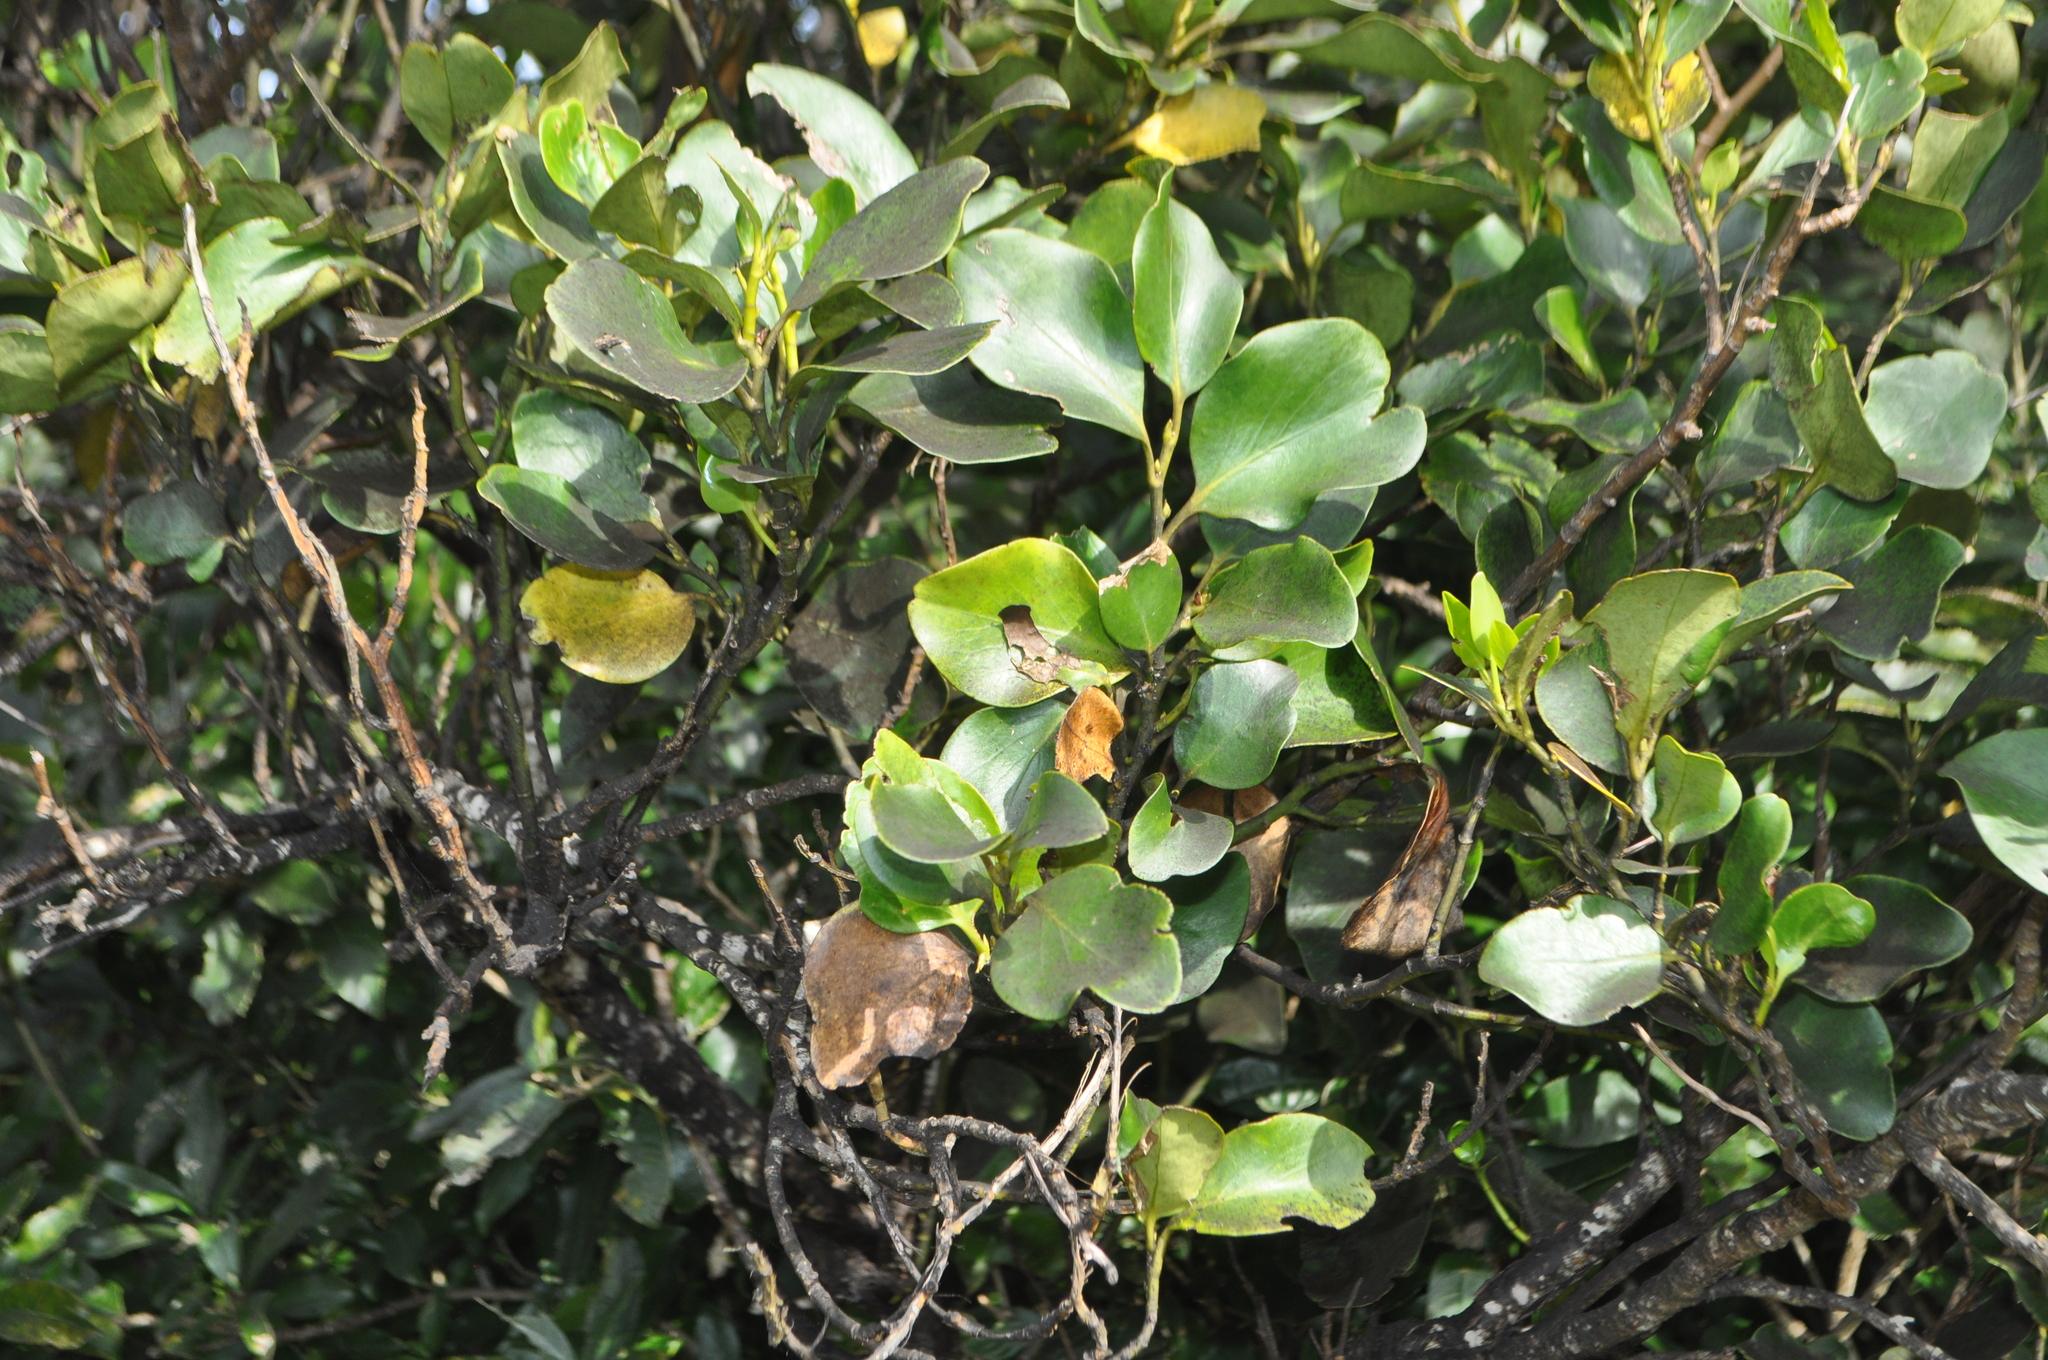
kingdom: Plantae
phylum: Tracheophyta
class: Magnoliopsida
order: Apiales
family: Griseliniaceae
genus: Griselinia
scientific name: Griselinia littoralis
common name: New zealand broadleaf
